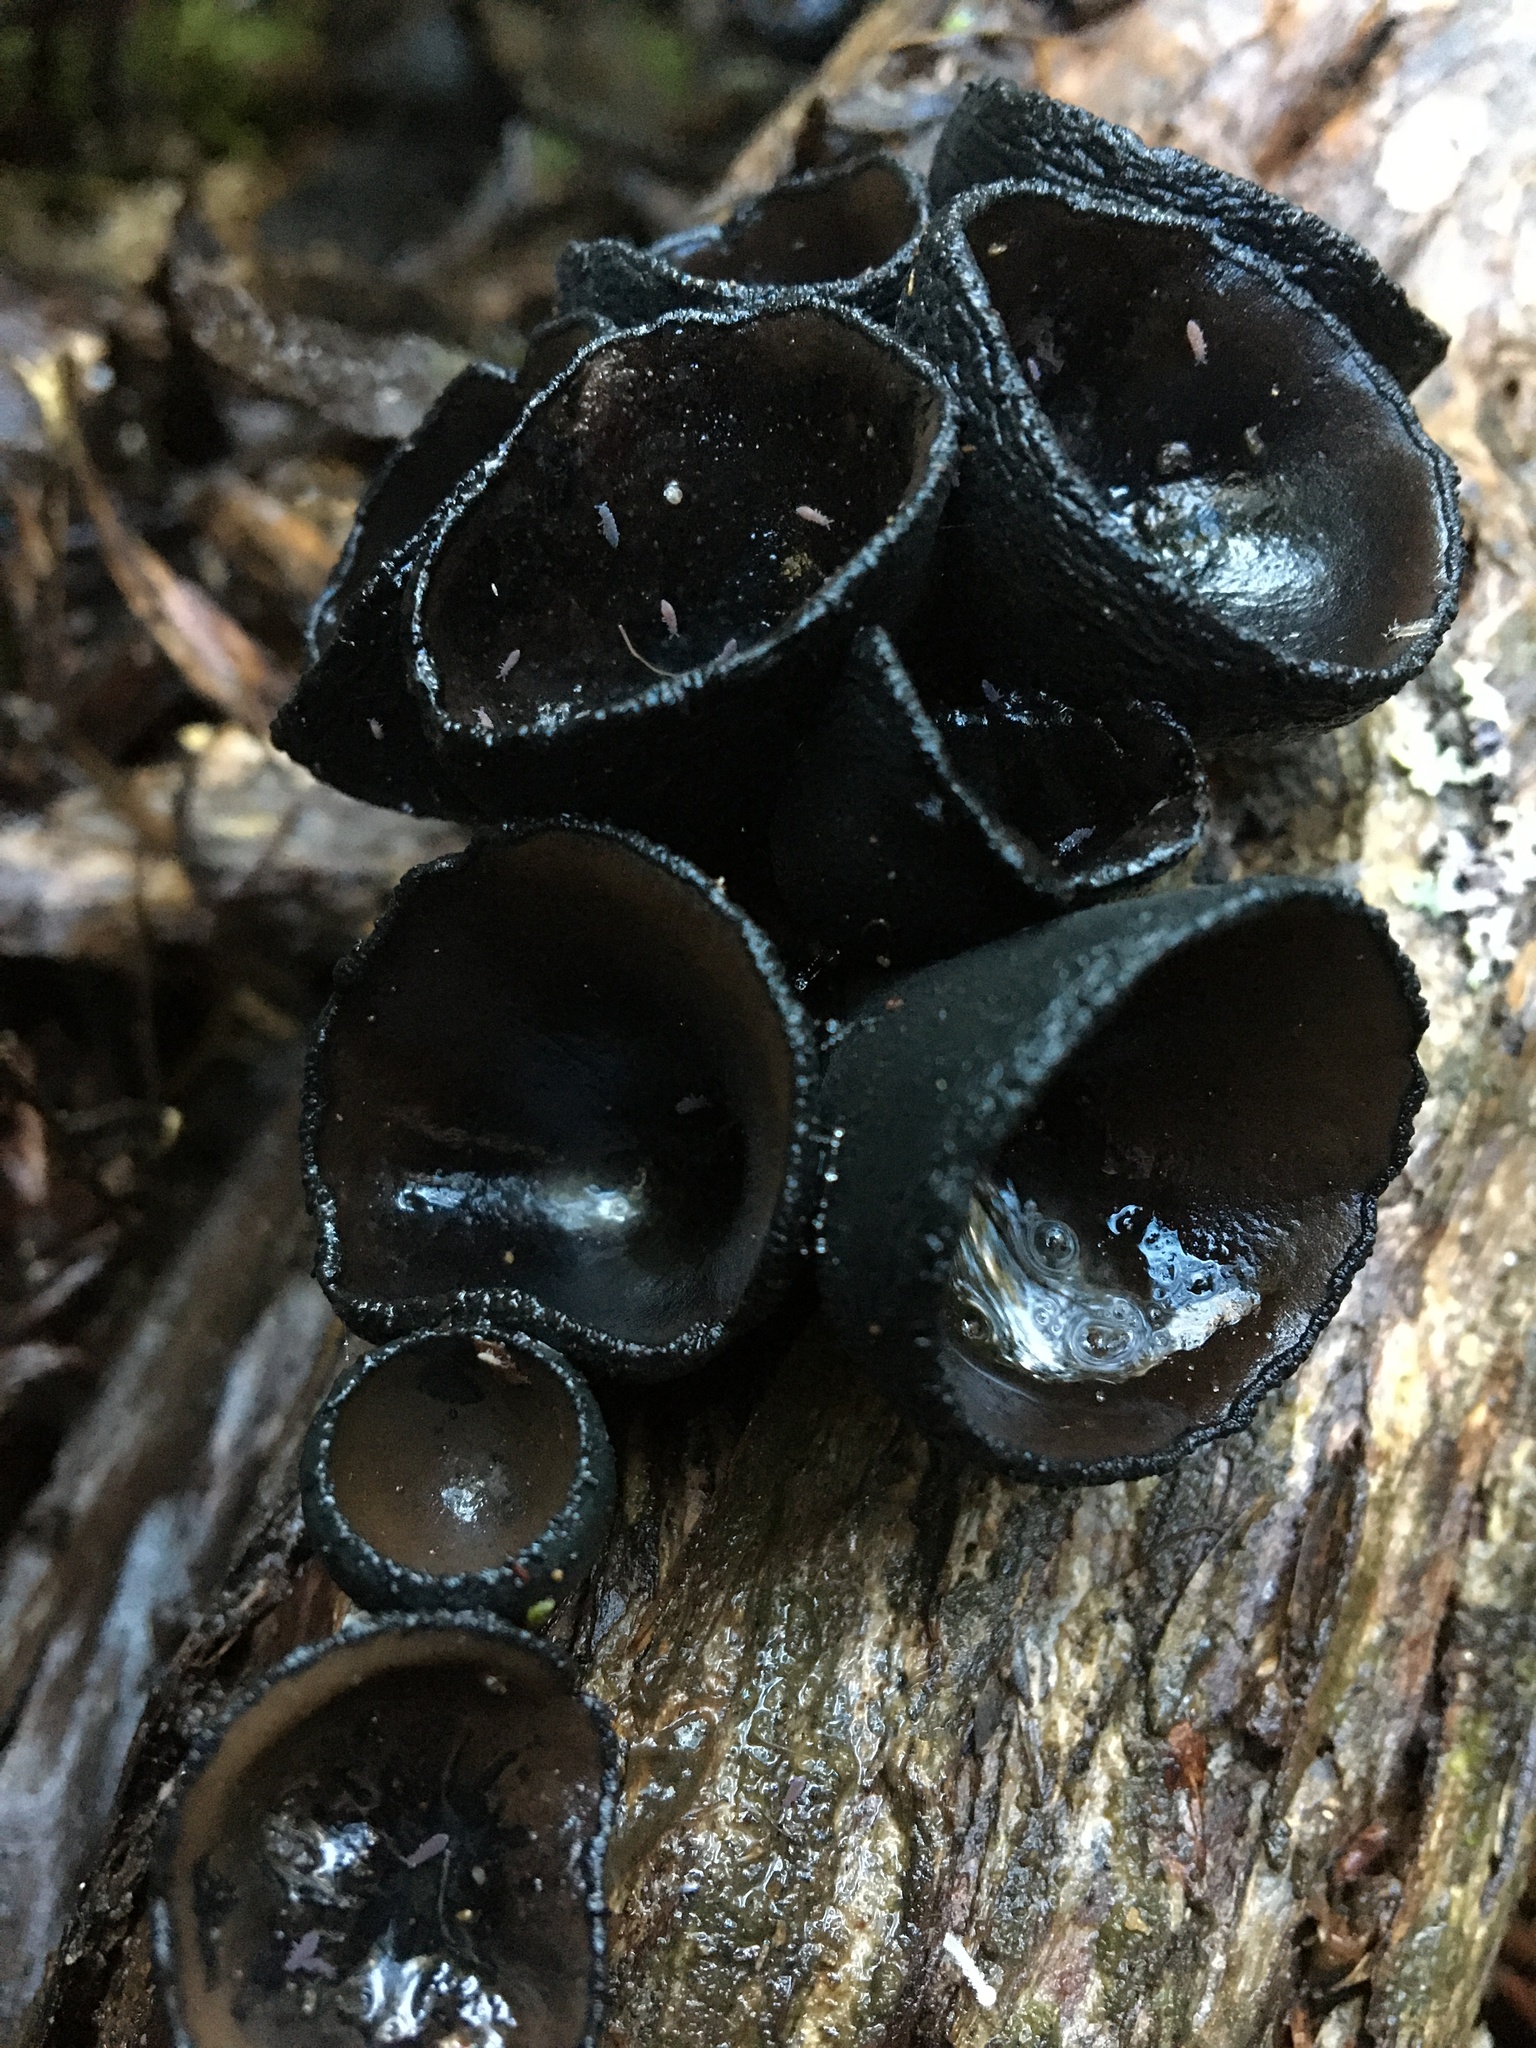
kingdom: Fungi
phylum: Ascomycota
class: Pezizomycetes
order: Pezizales
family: Sarcosomataceae
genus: Plectania
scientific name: Plectania campylospora
